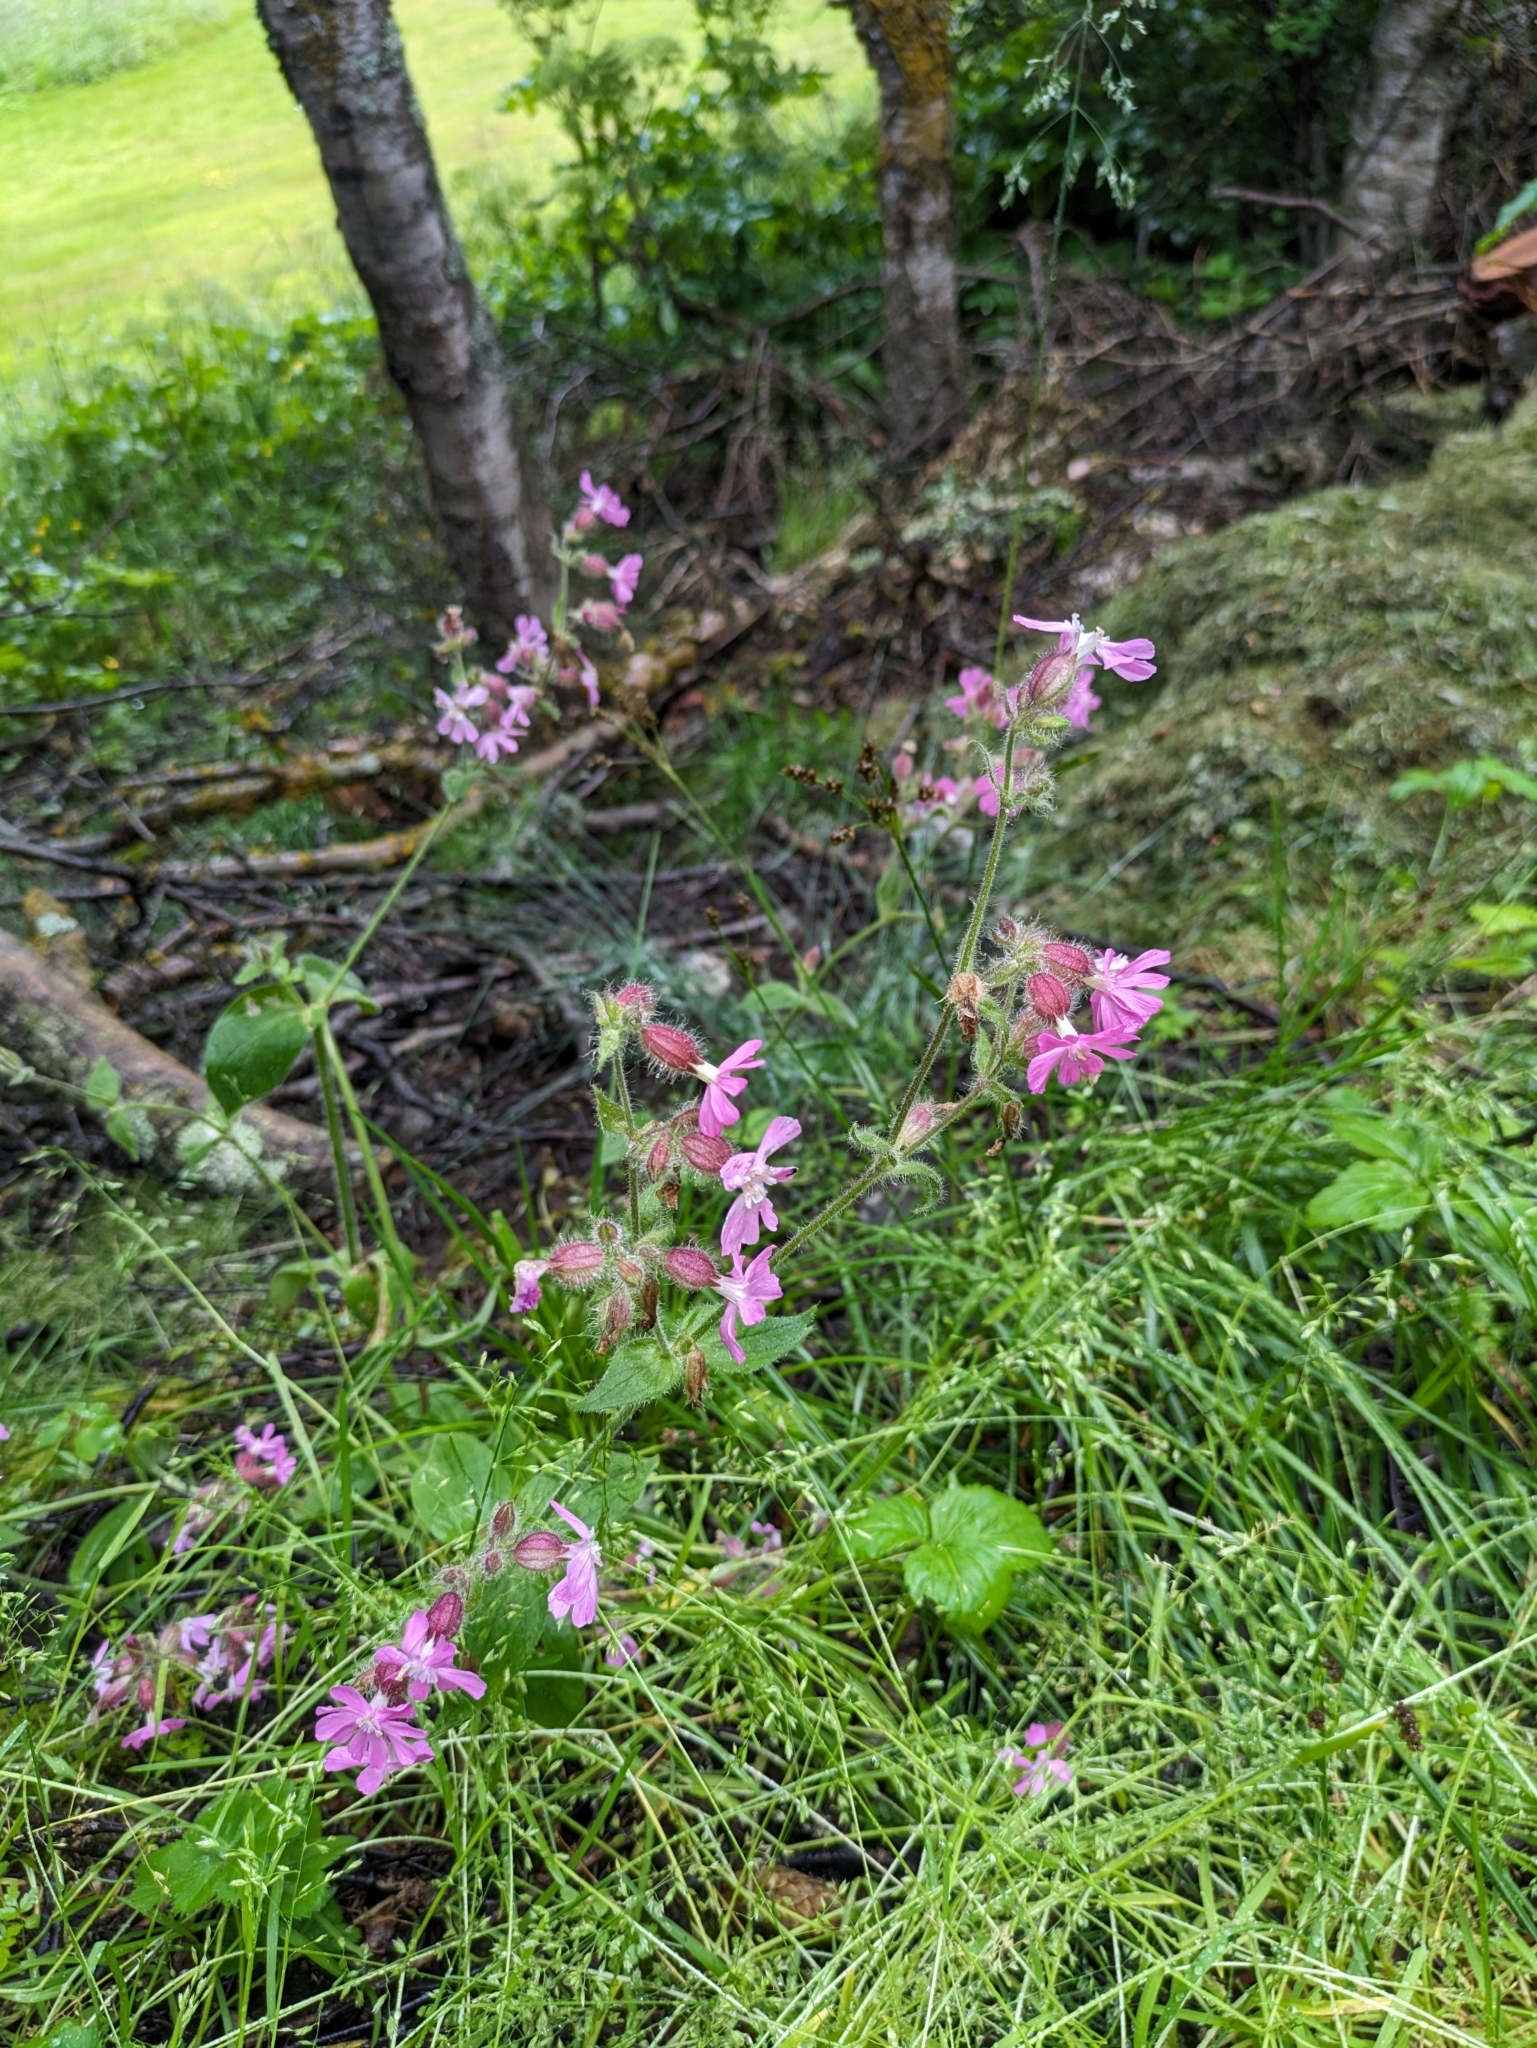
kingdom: Plantae
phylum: Tracheophyta
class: Magnoliopsida
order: Caryophyllales
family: Caryophyllaceae
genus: Silene
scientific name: Silene dioica
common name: Red campion
